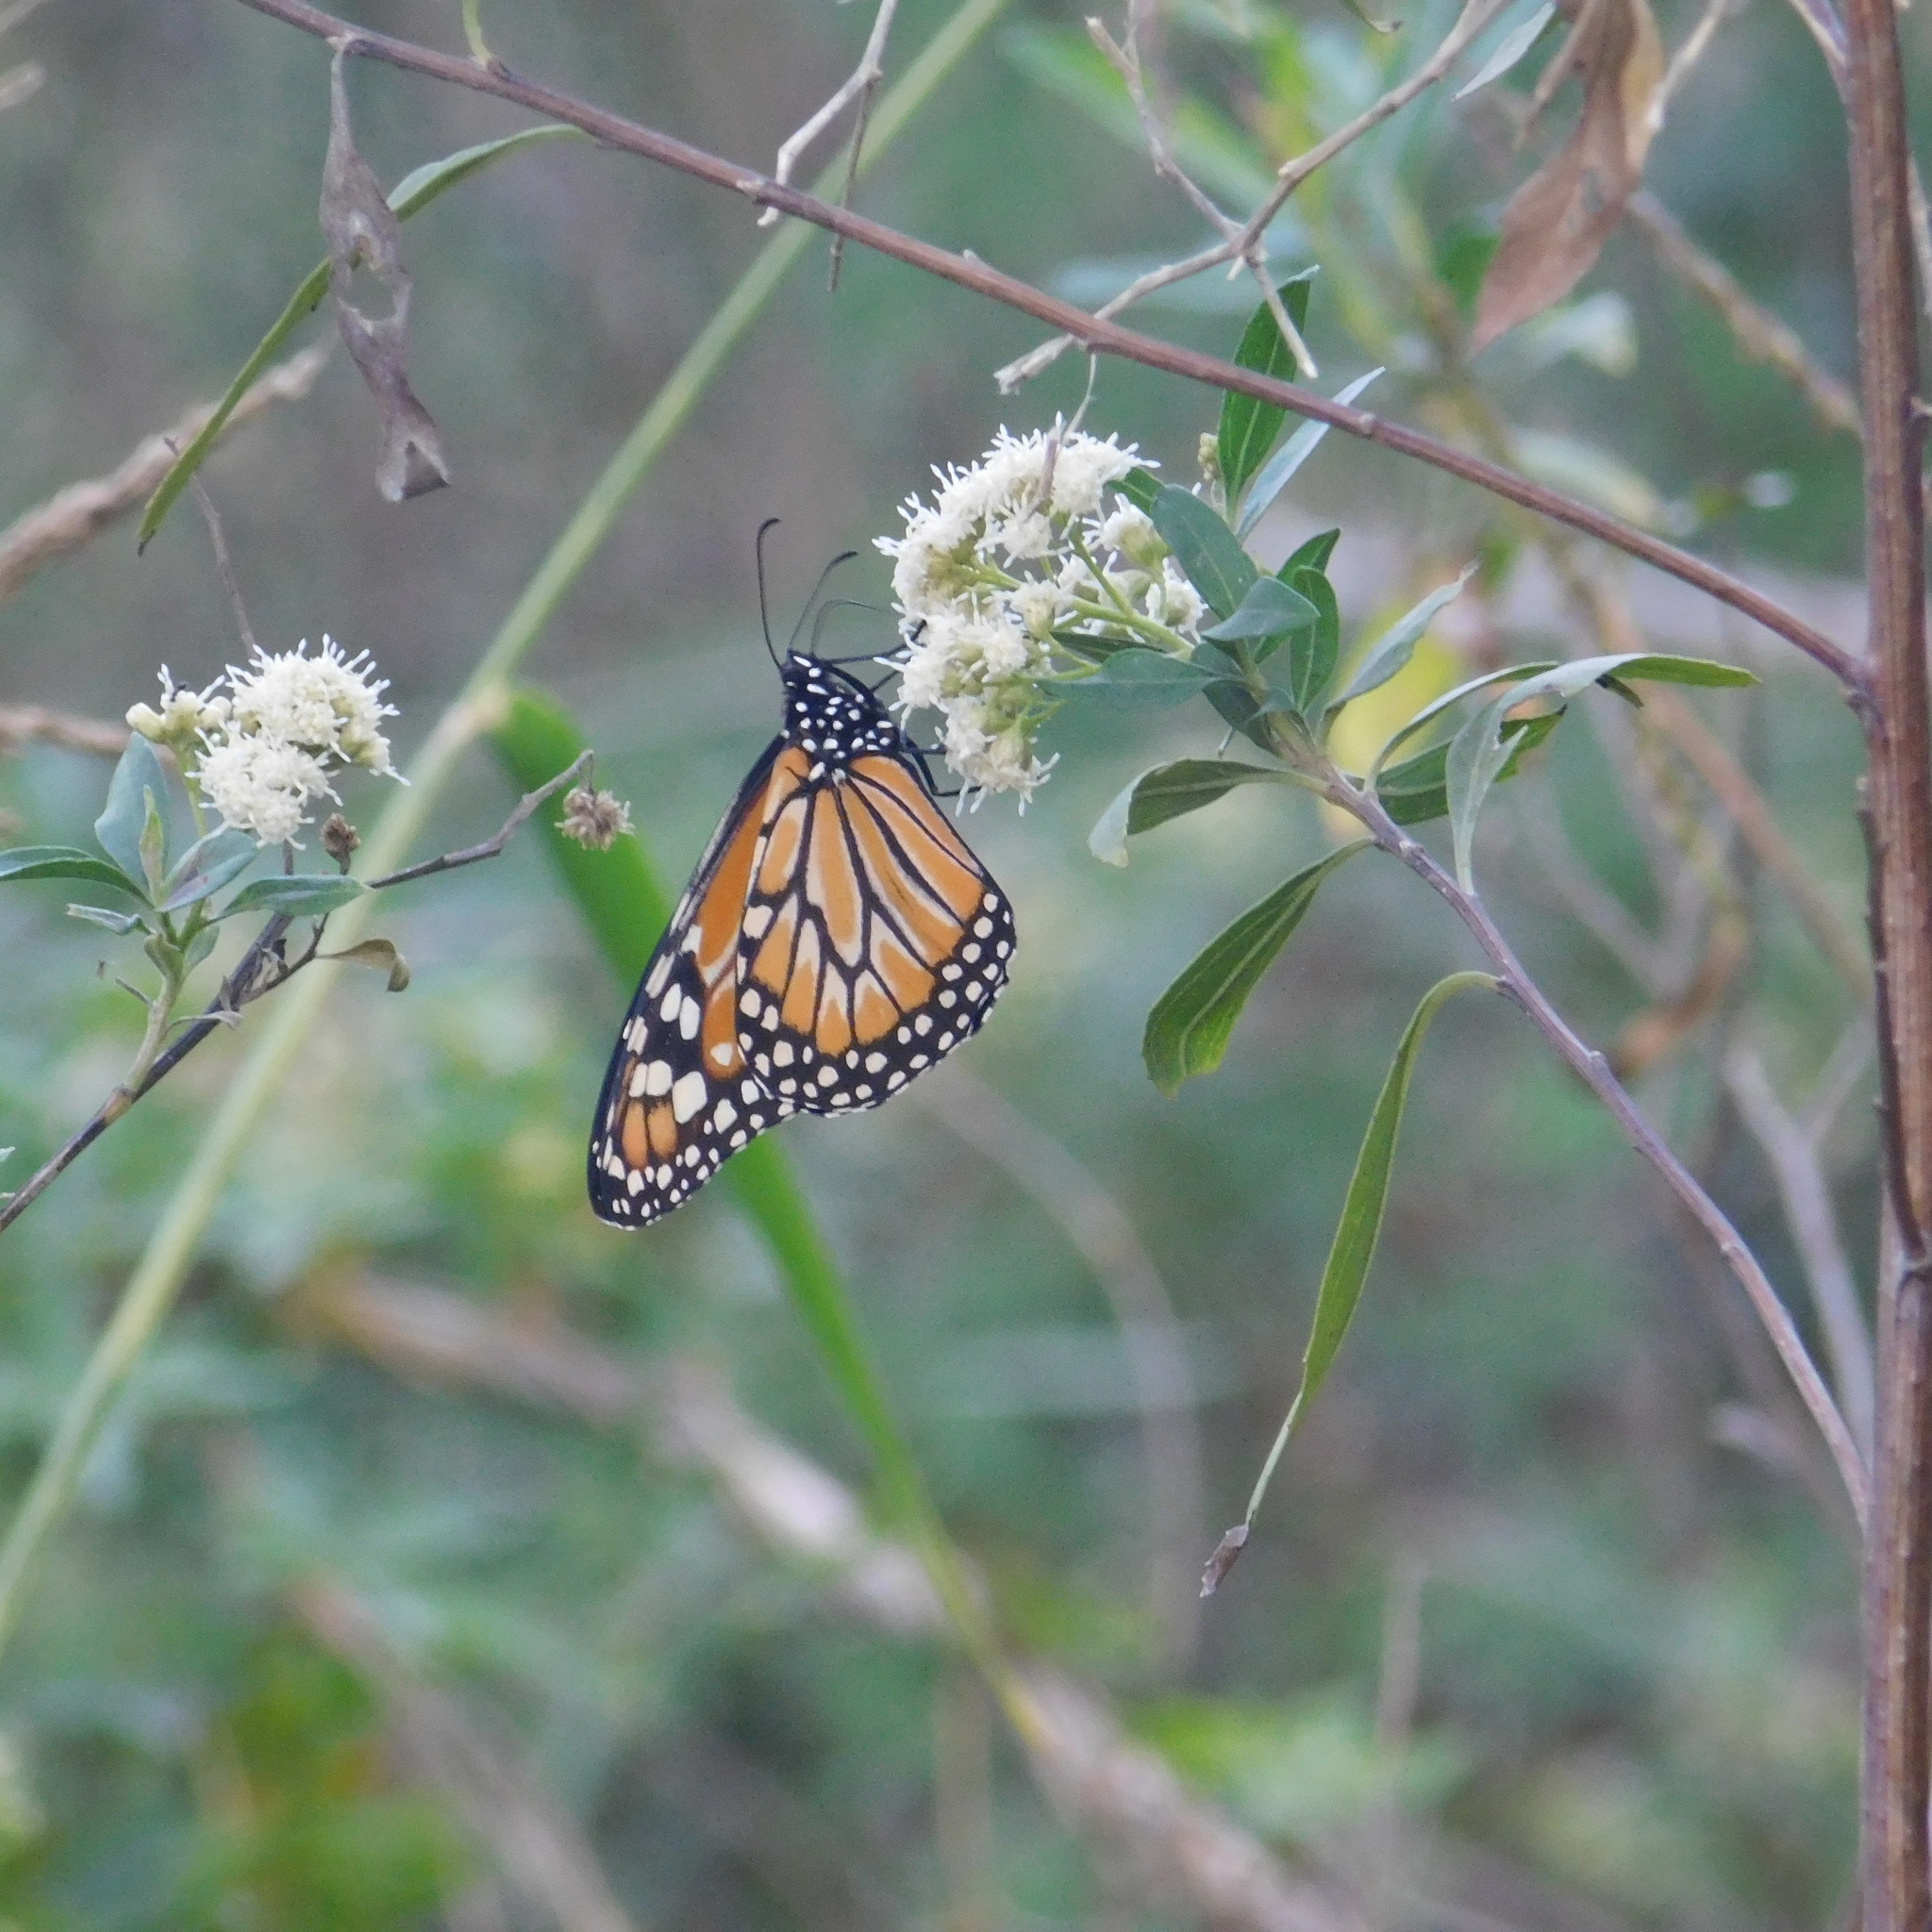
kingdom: Animalia
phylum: Arthropoda
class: Insecta
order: Lepidoptera
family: Nymphalidae
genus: Danaus
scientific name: Danaus erippus
